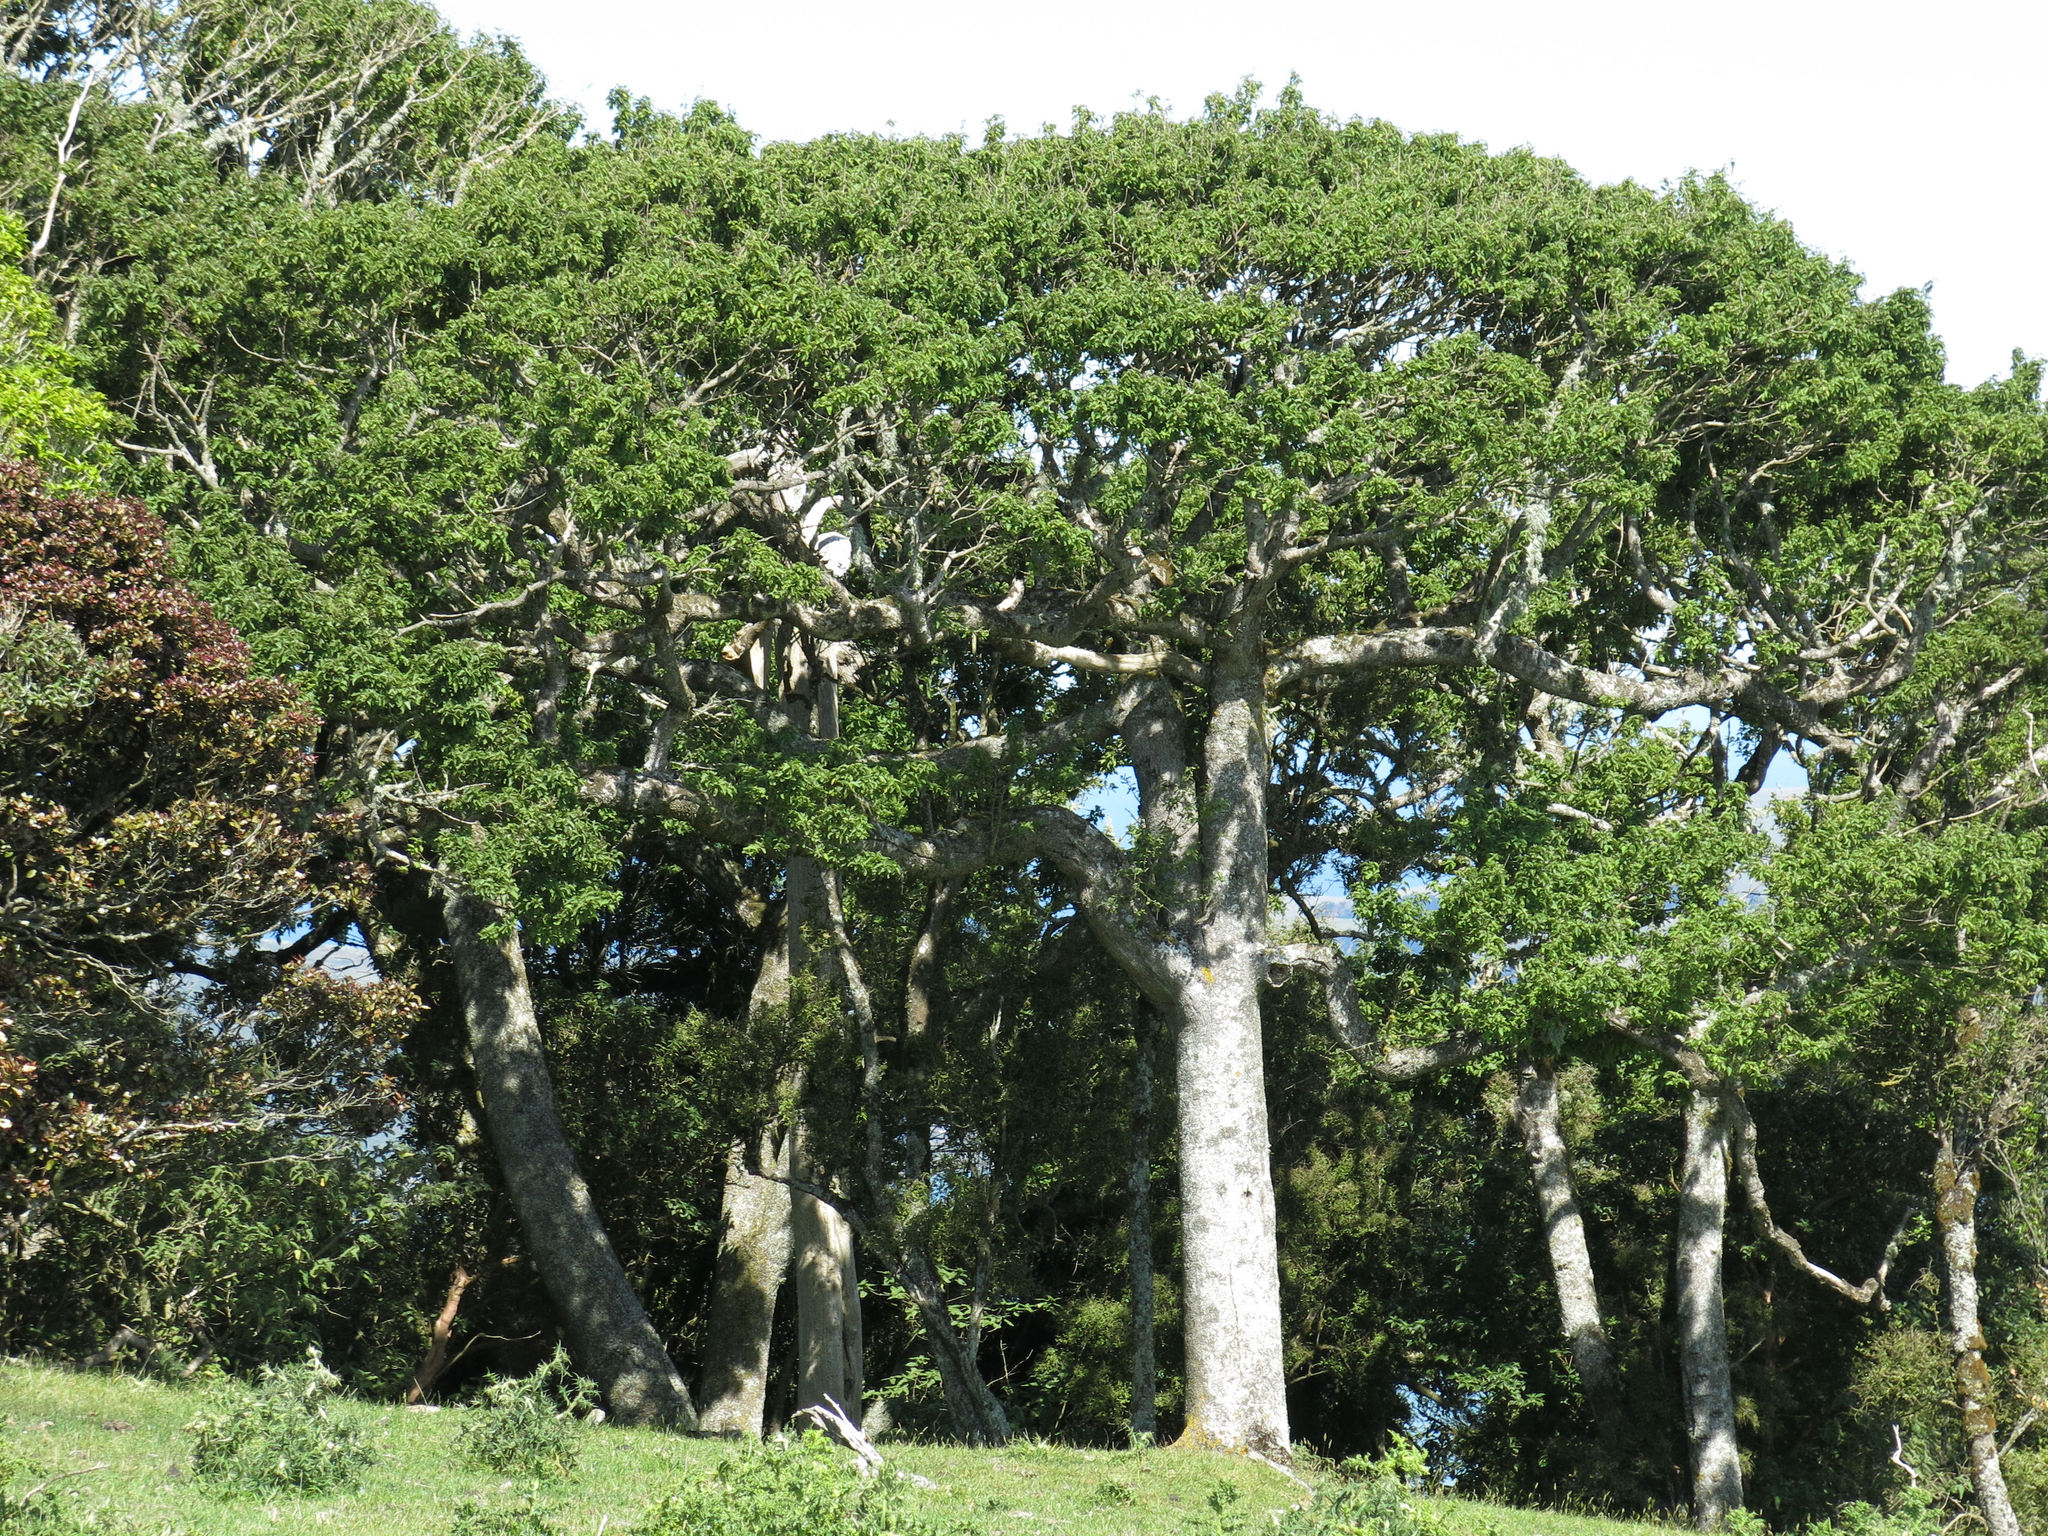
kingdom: Plantae
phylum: Tracheophyta
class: Magnoliopsida
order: Malvales
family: Malvaceae
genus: Plagianthus
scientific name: Plagianthus regius
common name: Manatu
